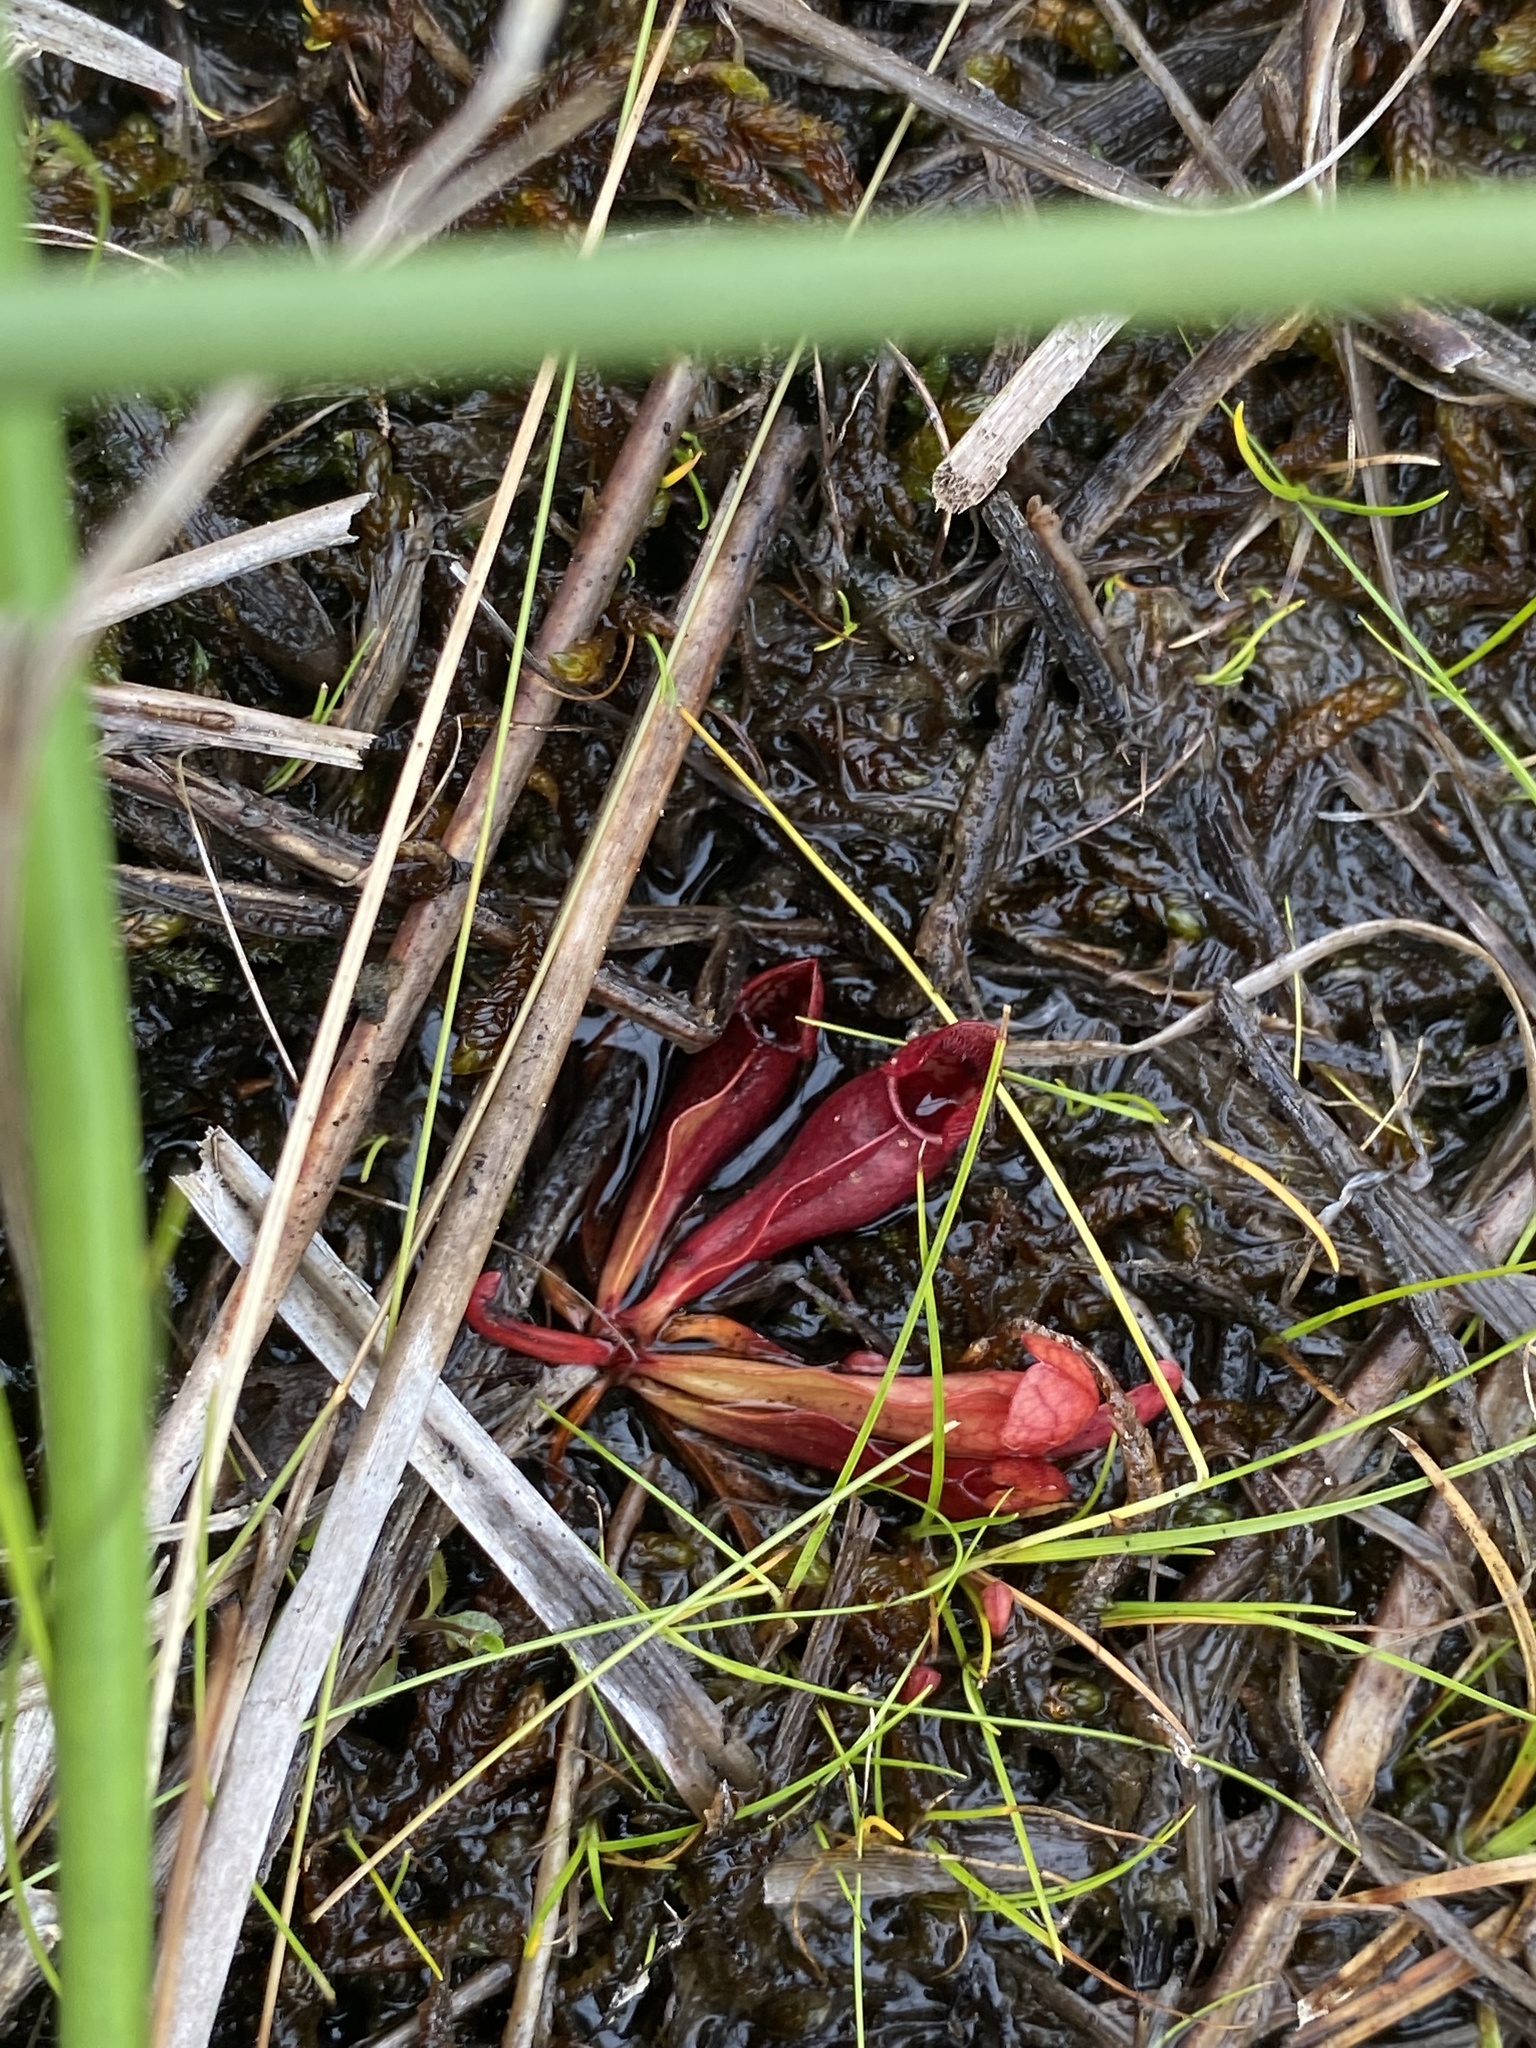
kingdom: Plantae
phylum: Tracheophyta
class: Magnoliopsida
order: Ericales
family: Sarraceniaceae
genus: Sarracenia
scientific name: Sarracenia purpurea
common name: Pitcherplant
